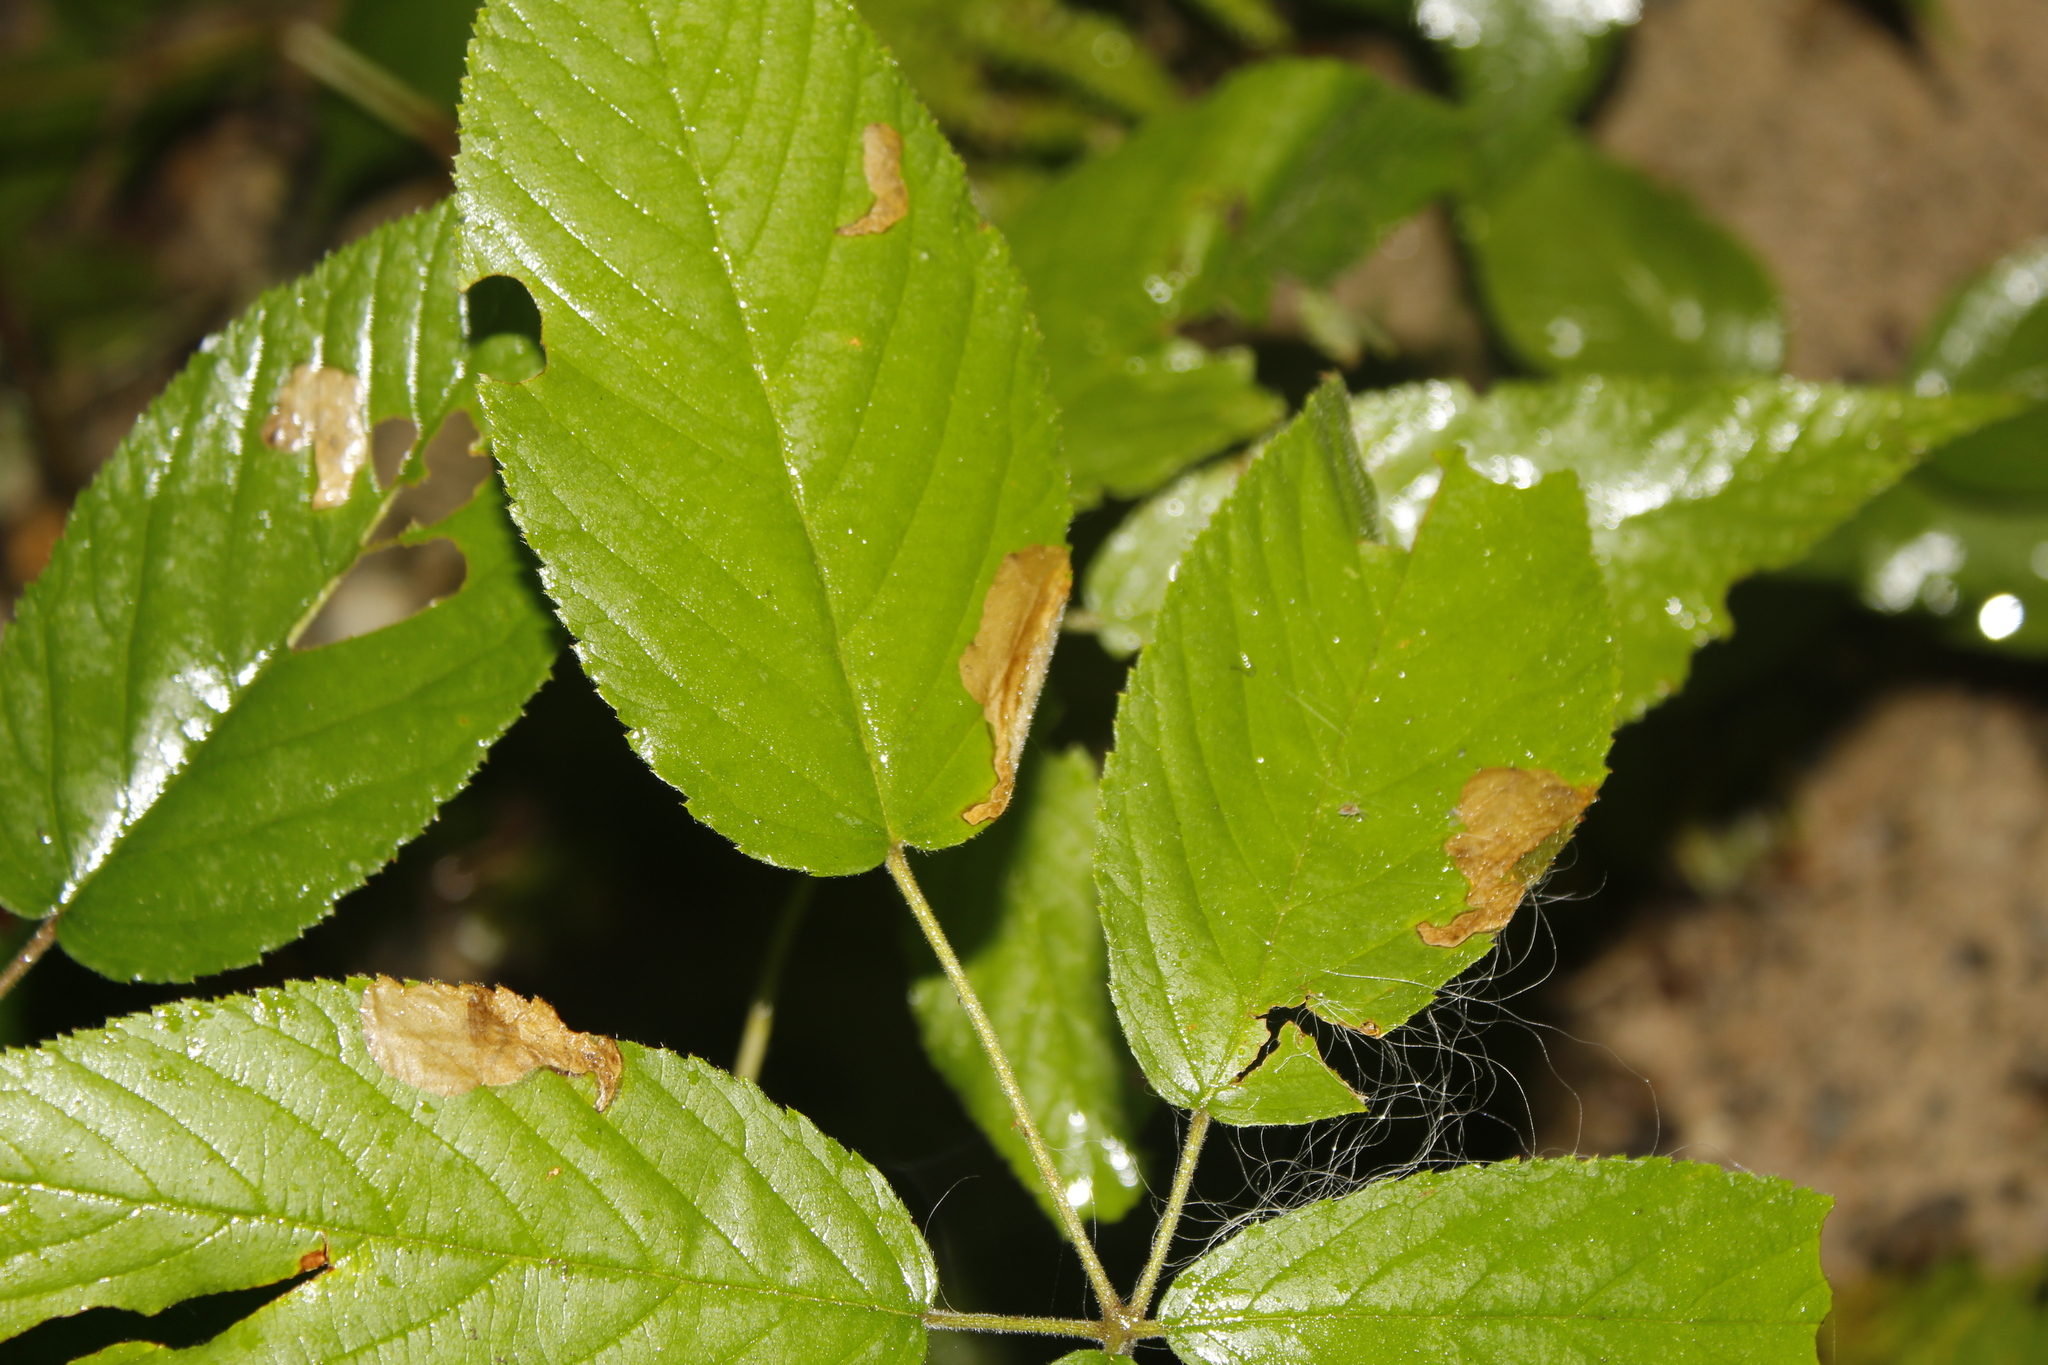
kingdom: Animalia
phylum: Arthropoda
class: Insecta
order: Hymenoptera
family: Tenthredinidae
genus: Metallus
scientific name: Metallus rohweri
